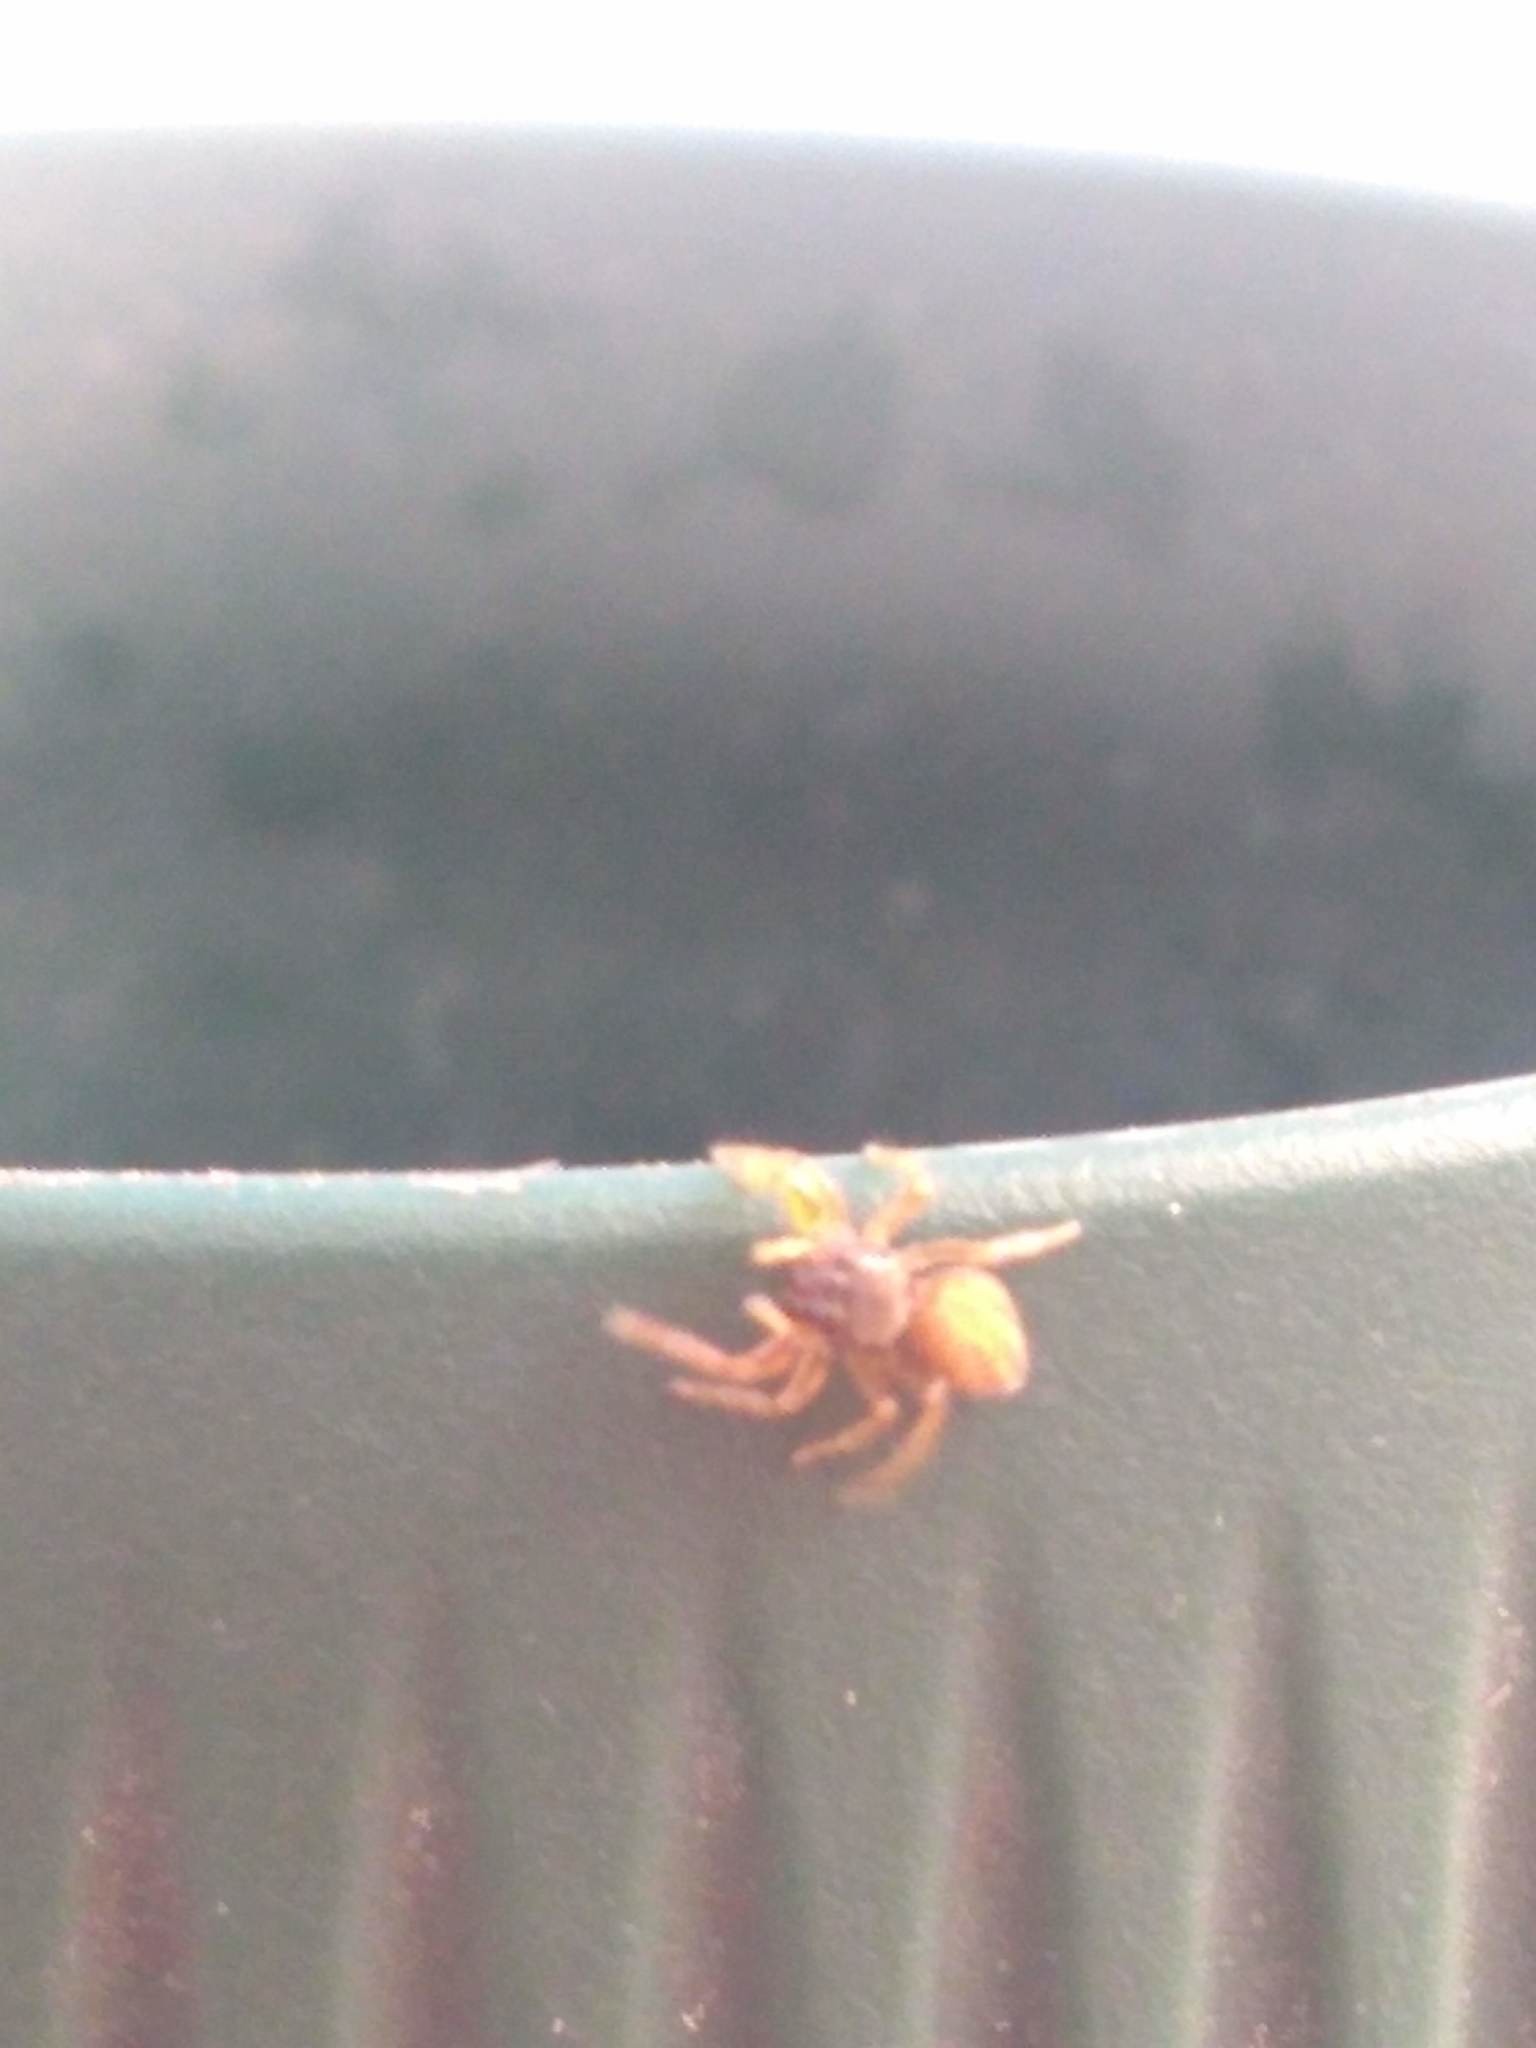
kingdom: Animalia
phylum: Arthropoda
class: Arachnida
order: Araneae
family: Salticidae
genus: Euophrys
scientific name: Euophrys melanoleuca
